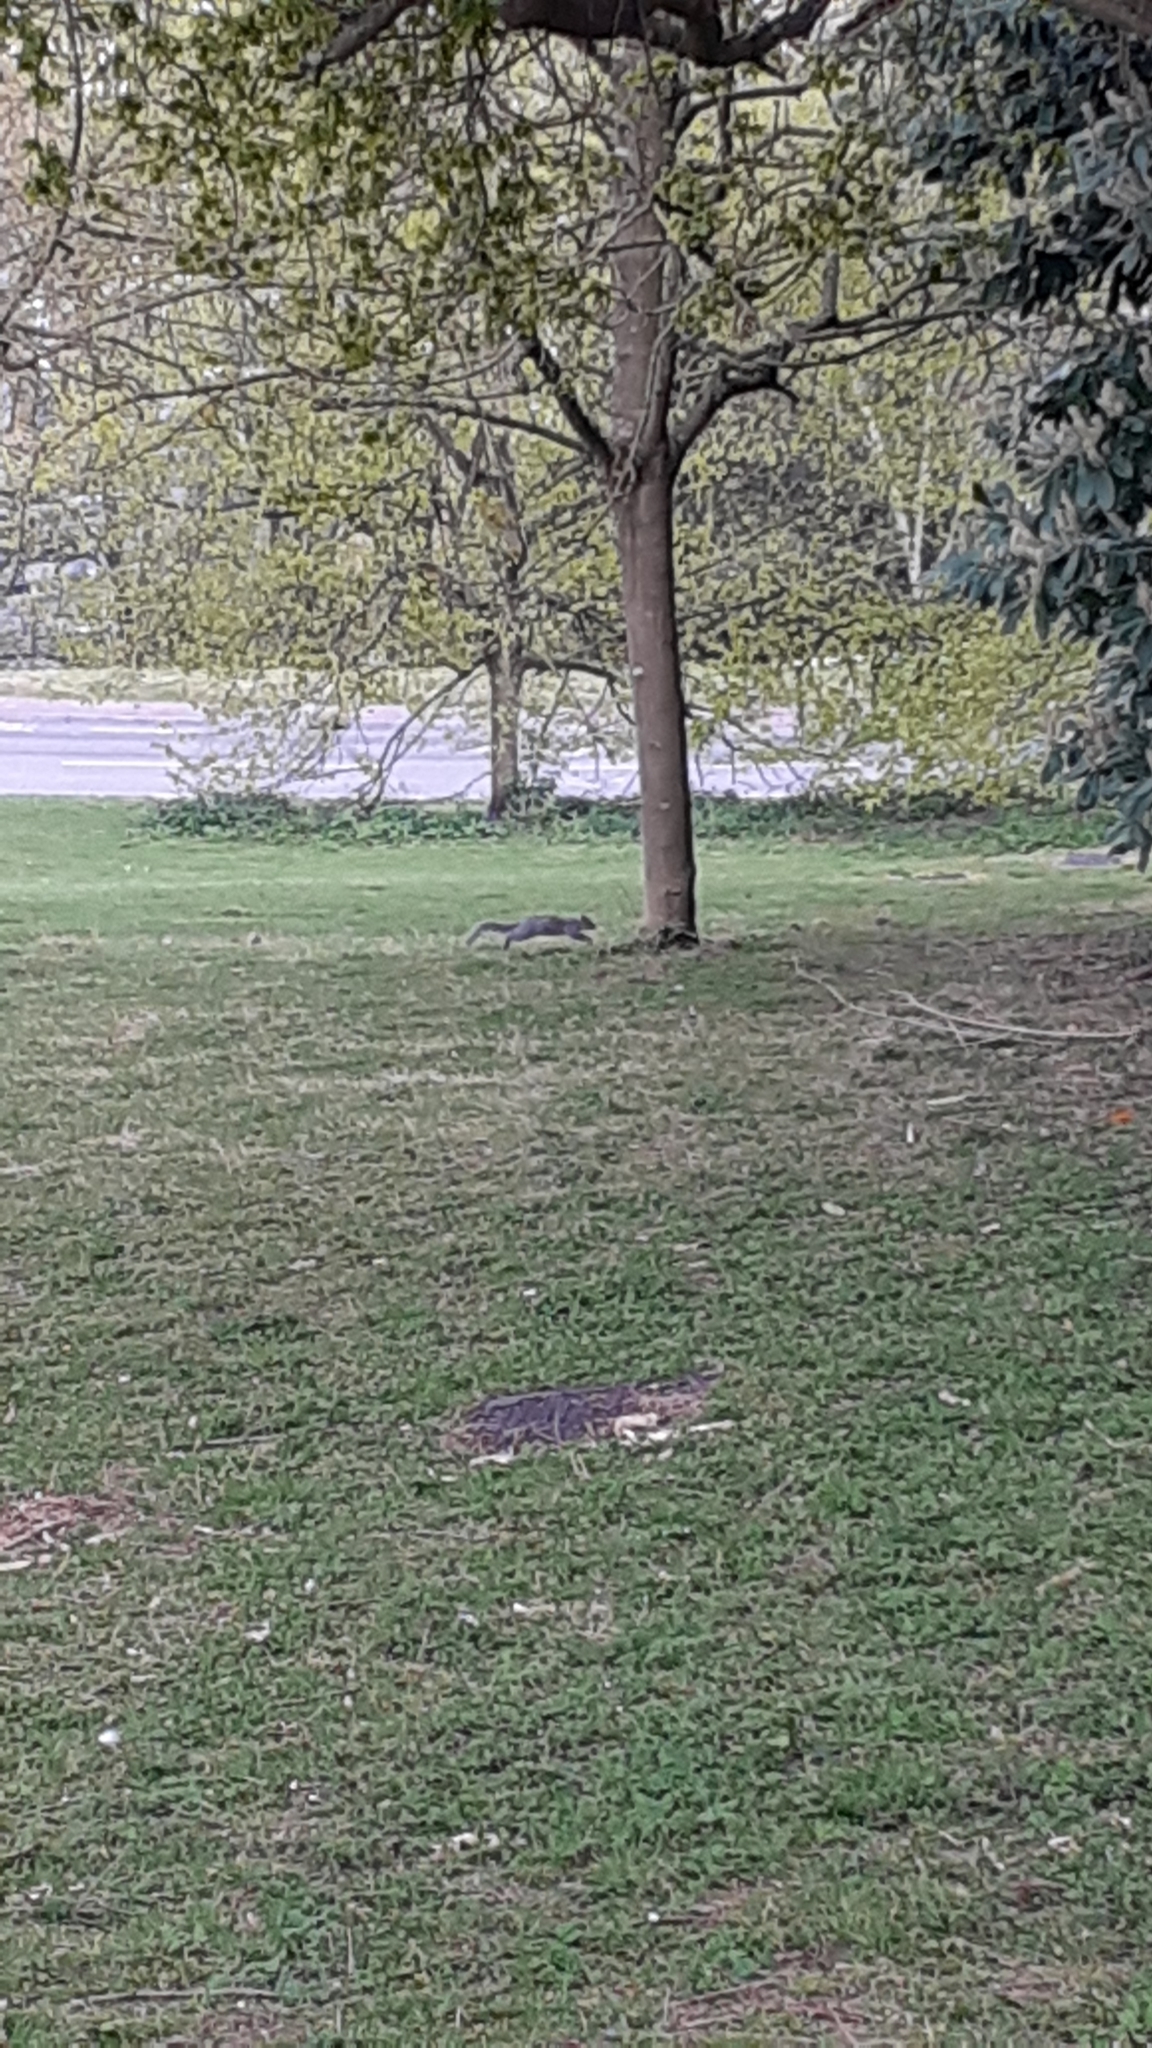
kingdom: Animalia
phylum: Chordata
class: Mammalia
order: Rodentia
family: Sciuridae
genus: Sciurus
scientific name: Sciurus carolinensis
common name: Eastern gray squirrel
